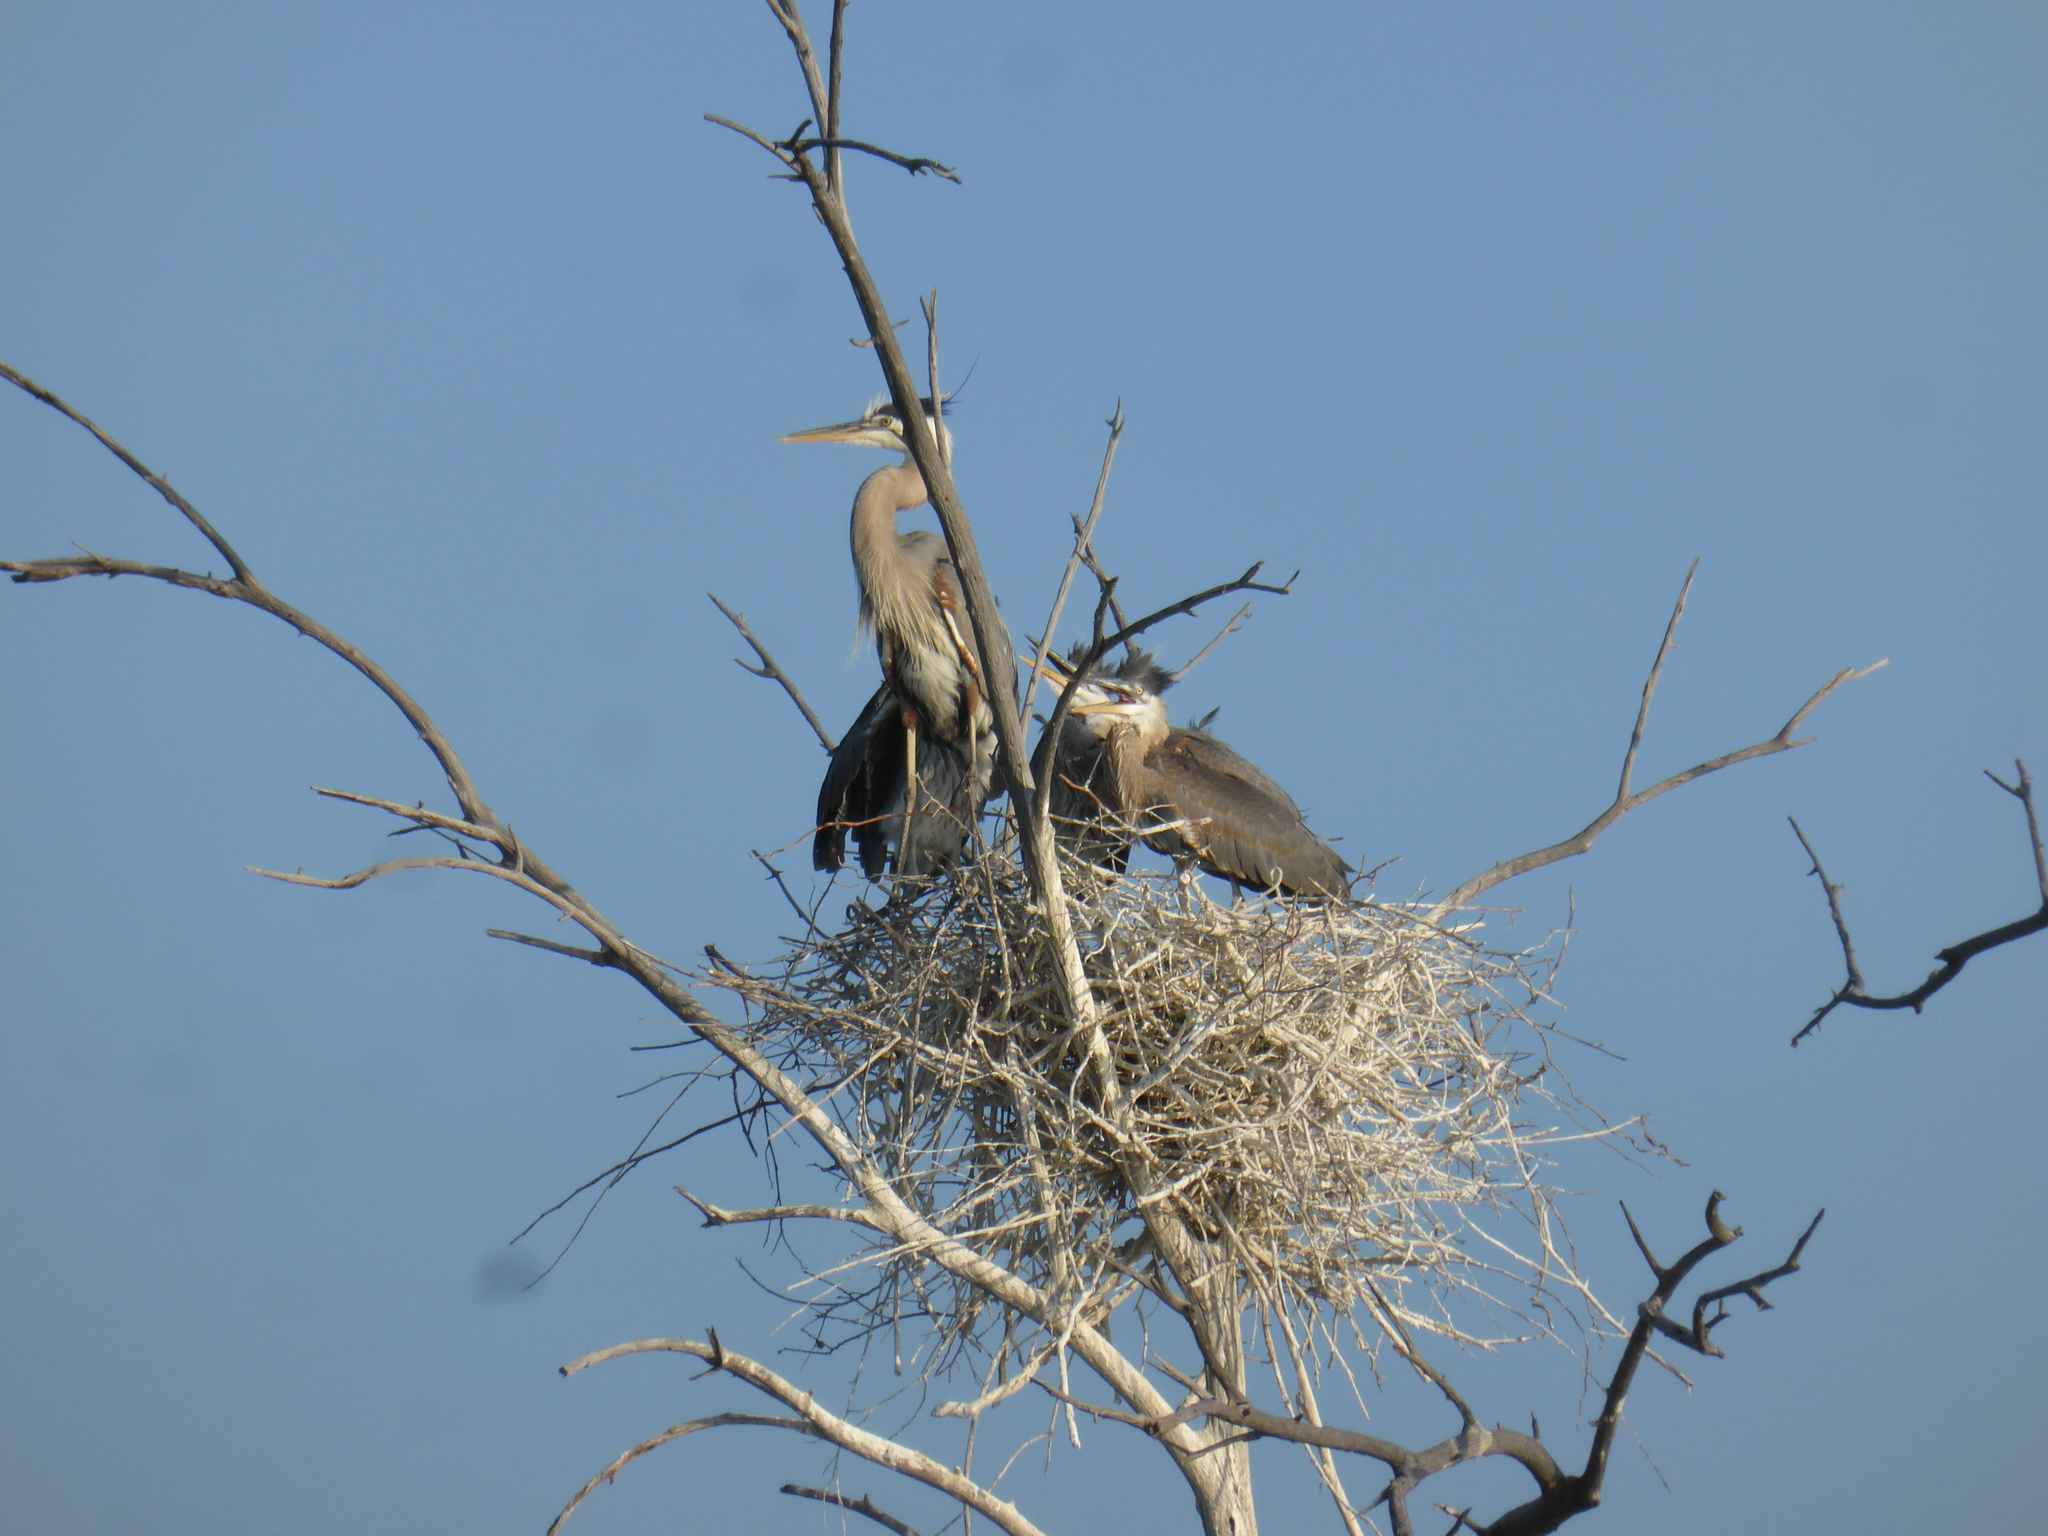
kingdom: Animalia
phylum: Chordata
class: Aves
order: Pelecaniformes
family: Ardeidae
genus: Ardea
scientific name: Ardea herodias
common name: Great blue heron
